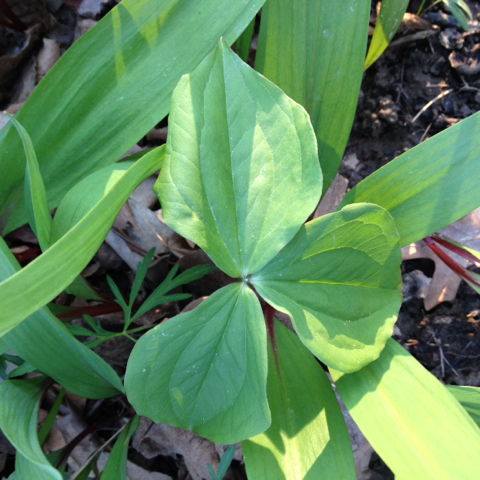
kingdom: Plantae
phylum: Tracheophyta
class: Liliopsida
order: Liliales
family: Melanthiaceae
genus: Trillium
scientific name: Trillium grandiflorum
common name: Great white trillium
